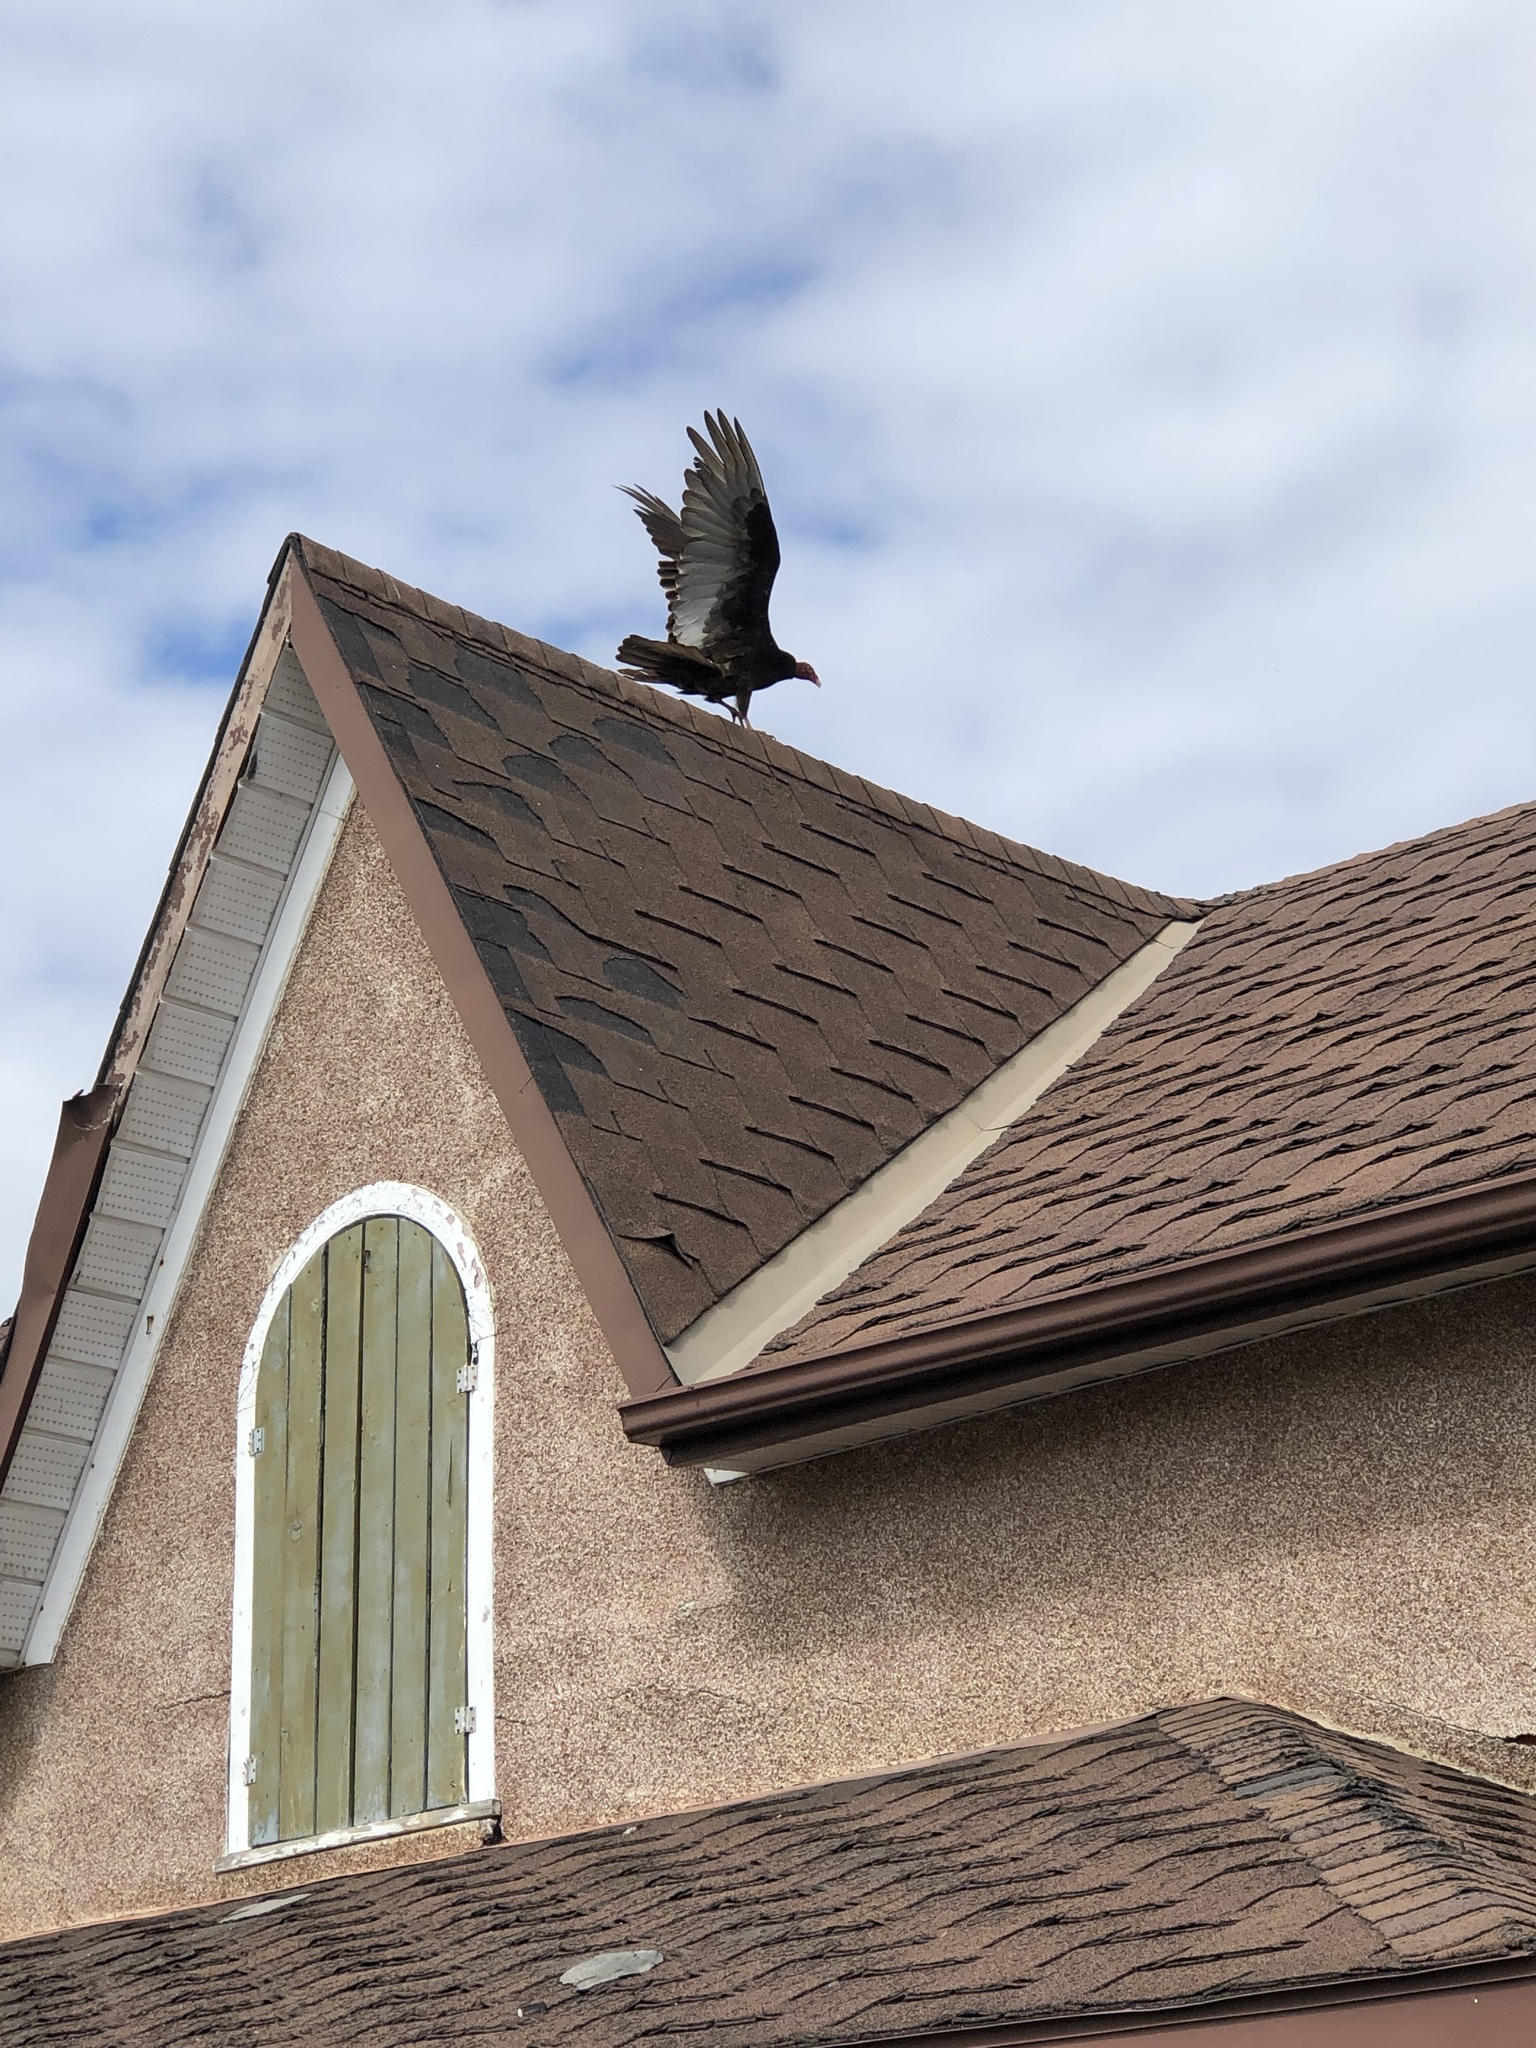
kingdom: Animalia
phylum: Chordata
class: Aves
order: Accipitriformes
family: Cathartidae
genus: Cathartes
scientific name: Cathartes aura
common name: Turkey vulture
